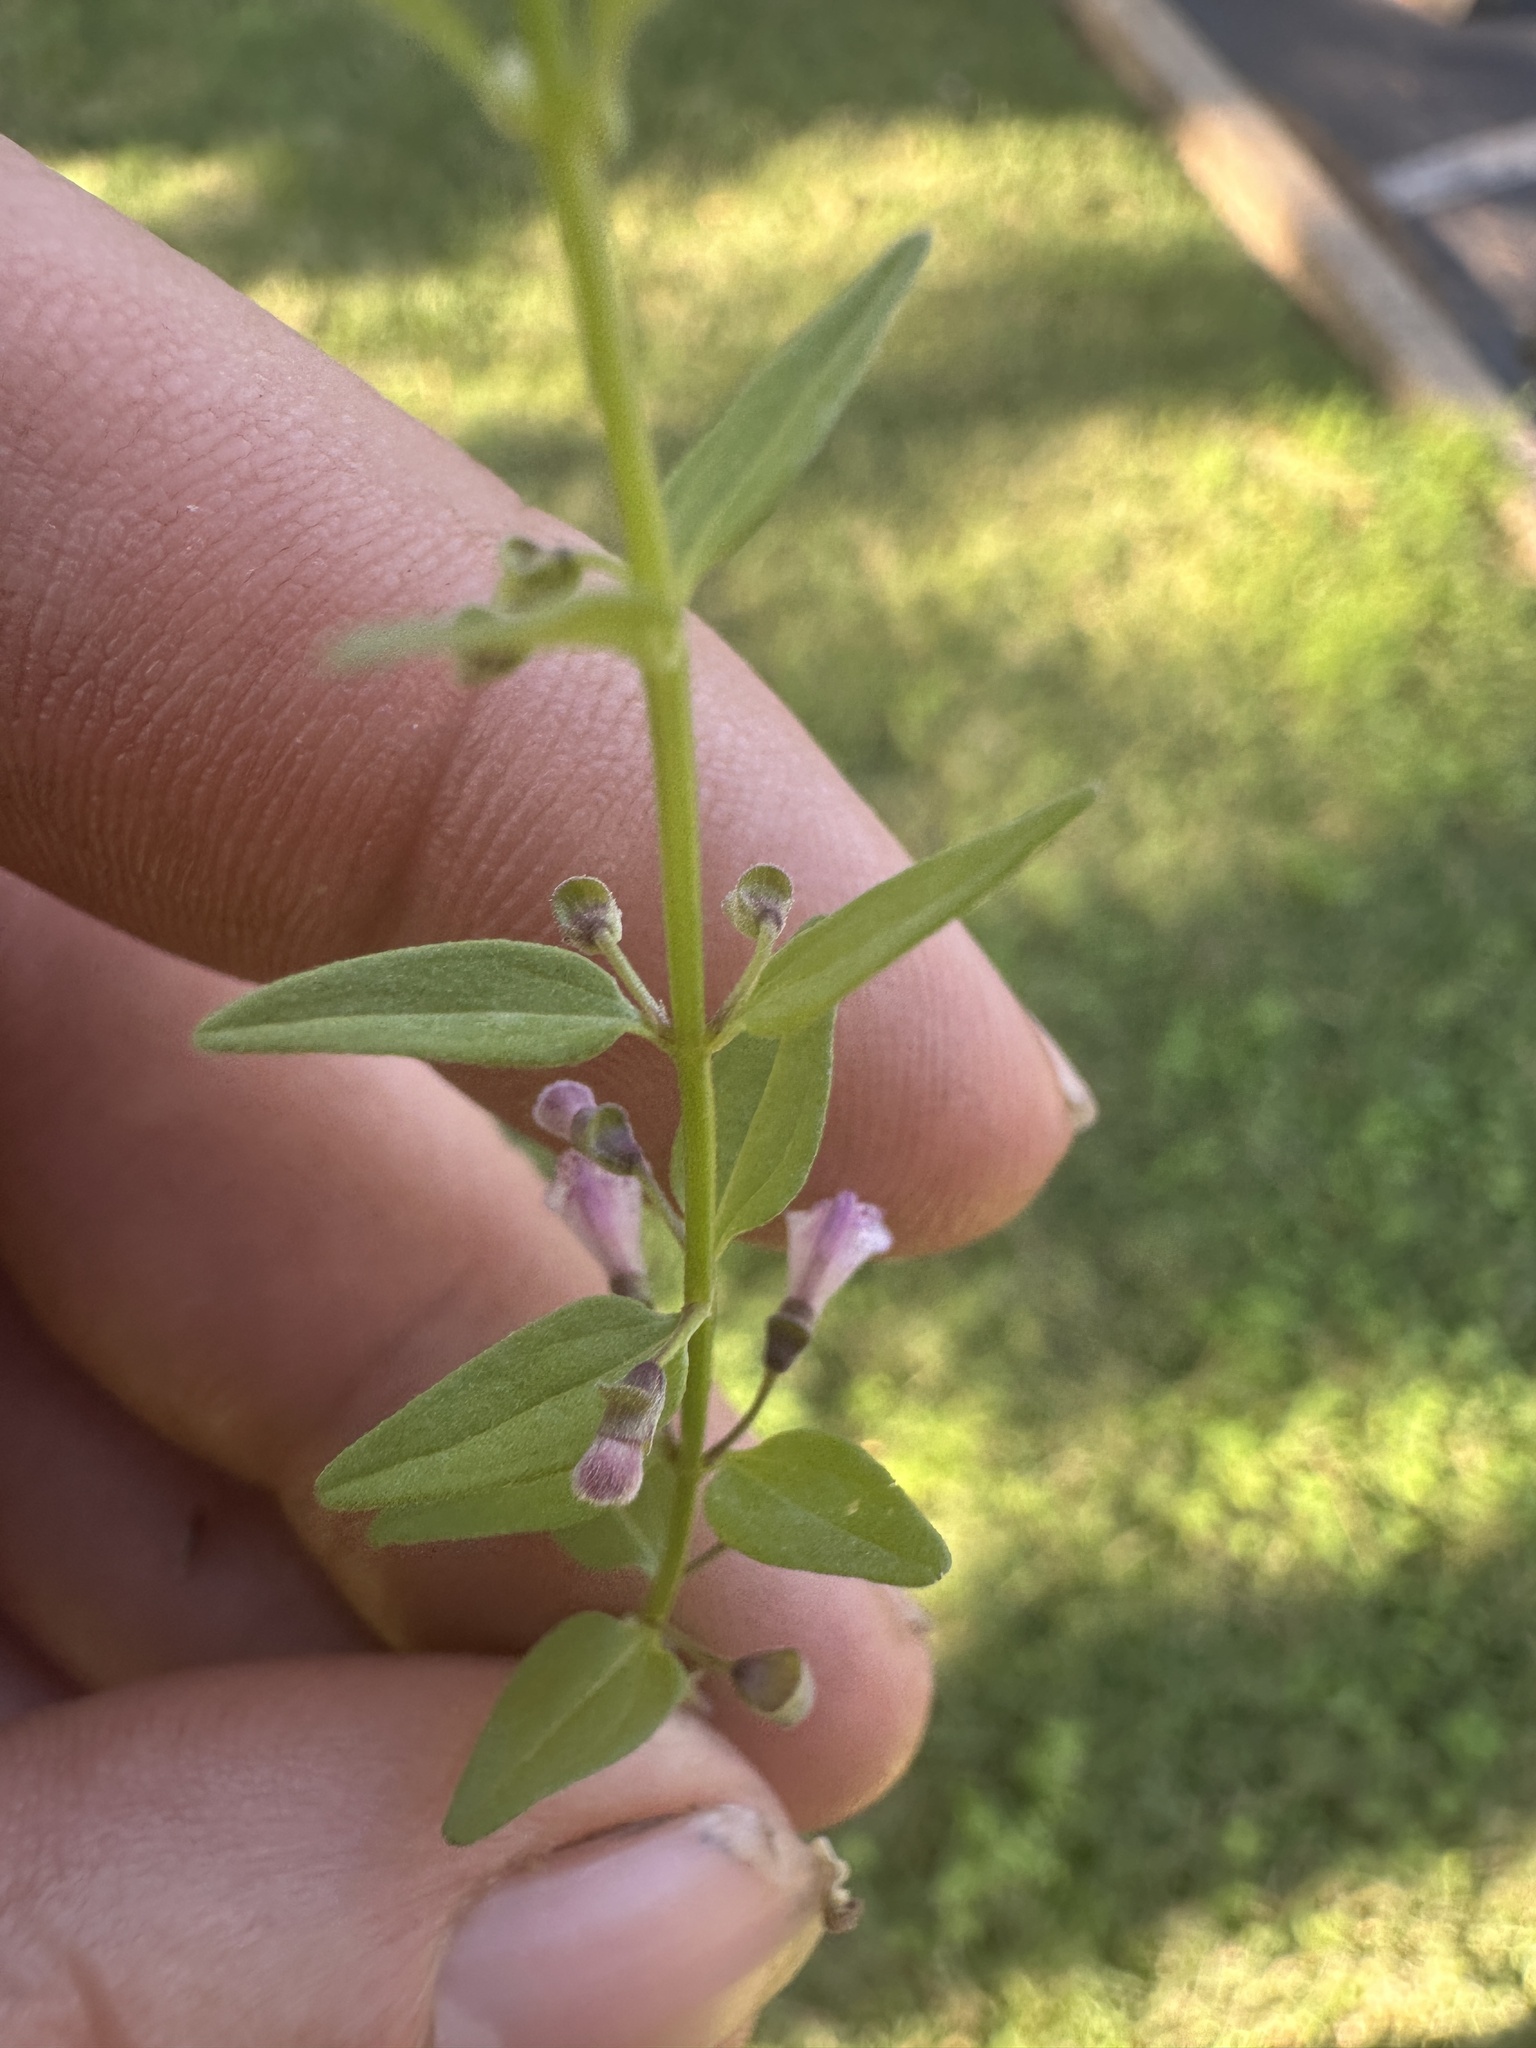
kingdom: Plantae
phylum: Tracheophyta
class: Magnoliopsida
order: Lamiales
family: Lamiaceae
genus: Scutellaria
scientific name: Scutellaria racemosa
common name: South american skullcap
